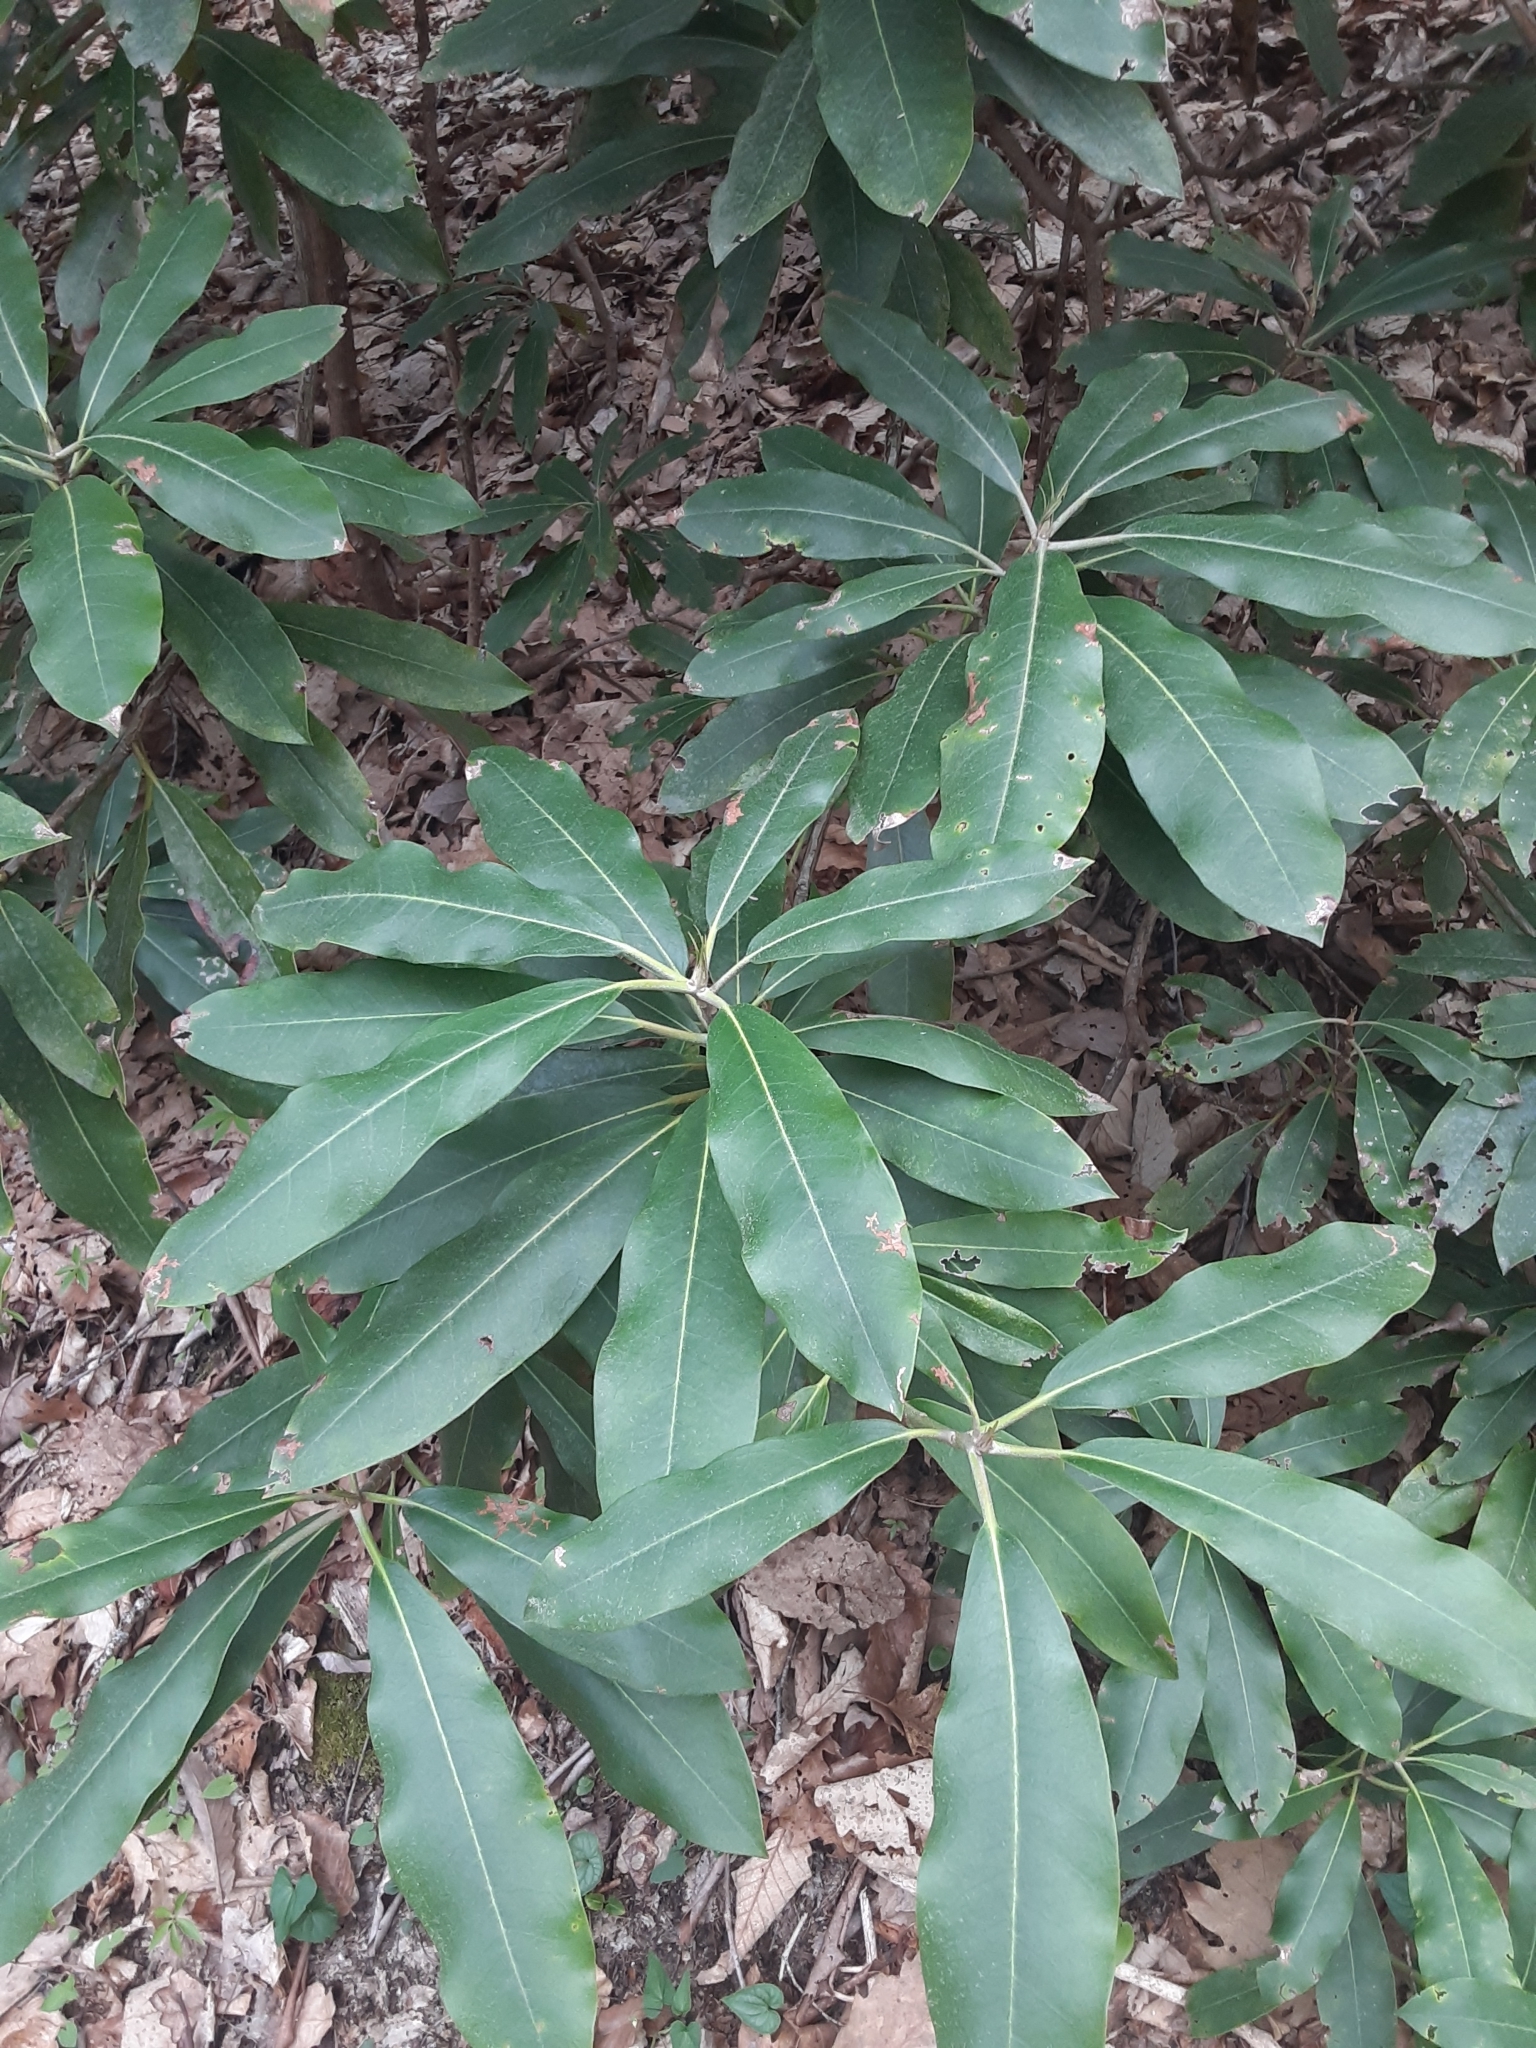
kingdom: Plantae
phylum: Tracheophyta
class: Magnoliopsida
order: Ericales
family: Ericaceae
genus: Rhododendron
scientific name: Rhododendron maximum
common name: Great rhododendron
